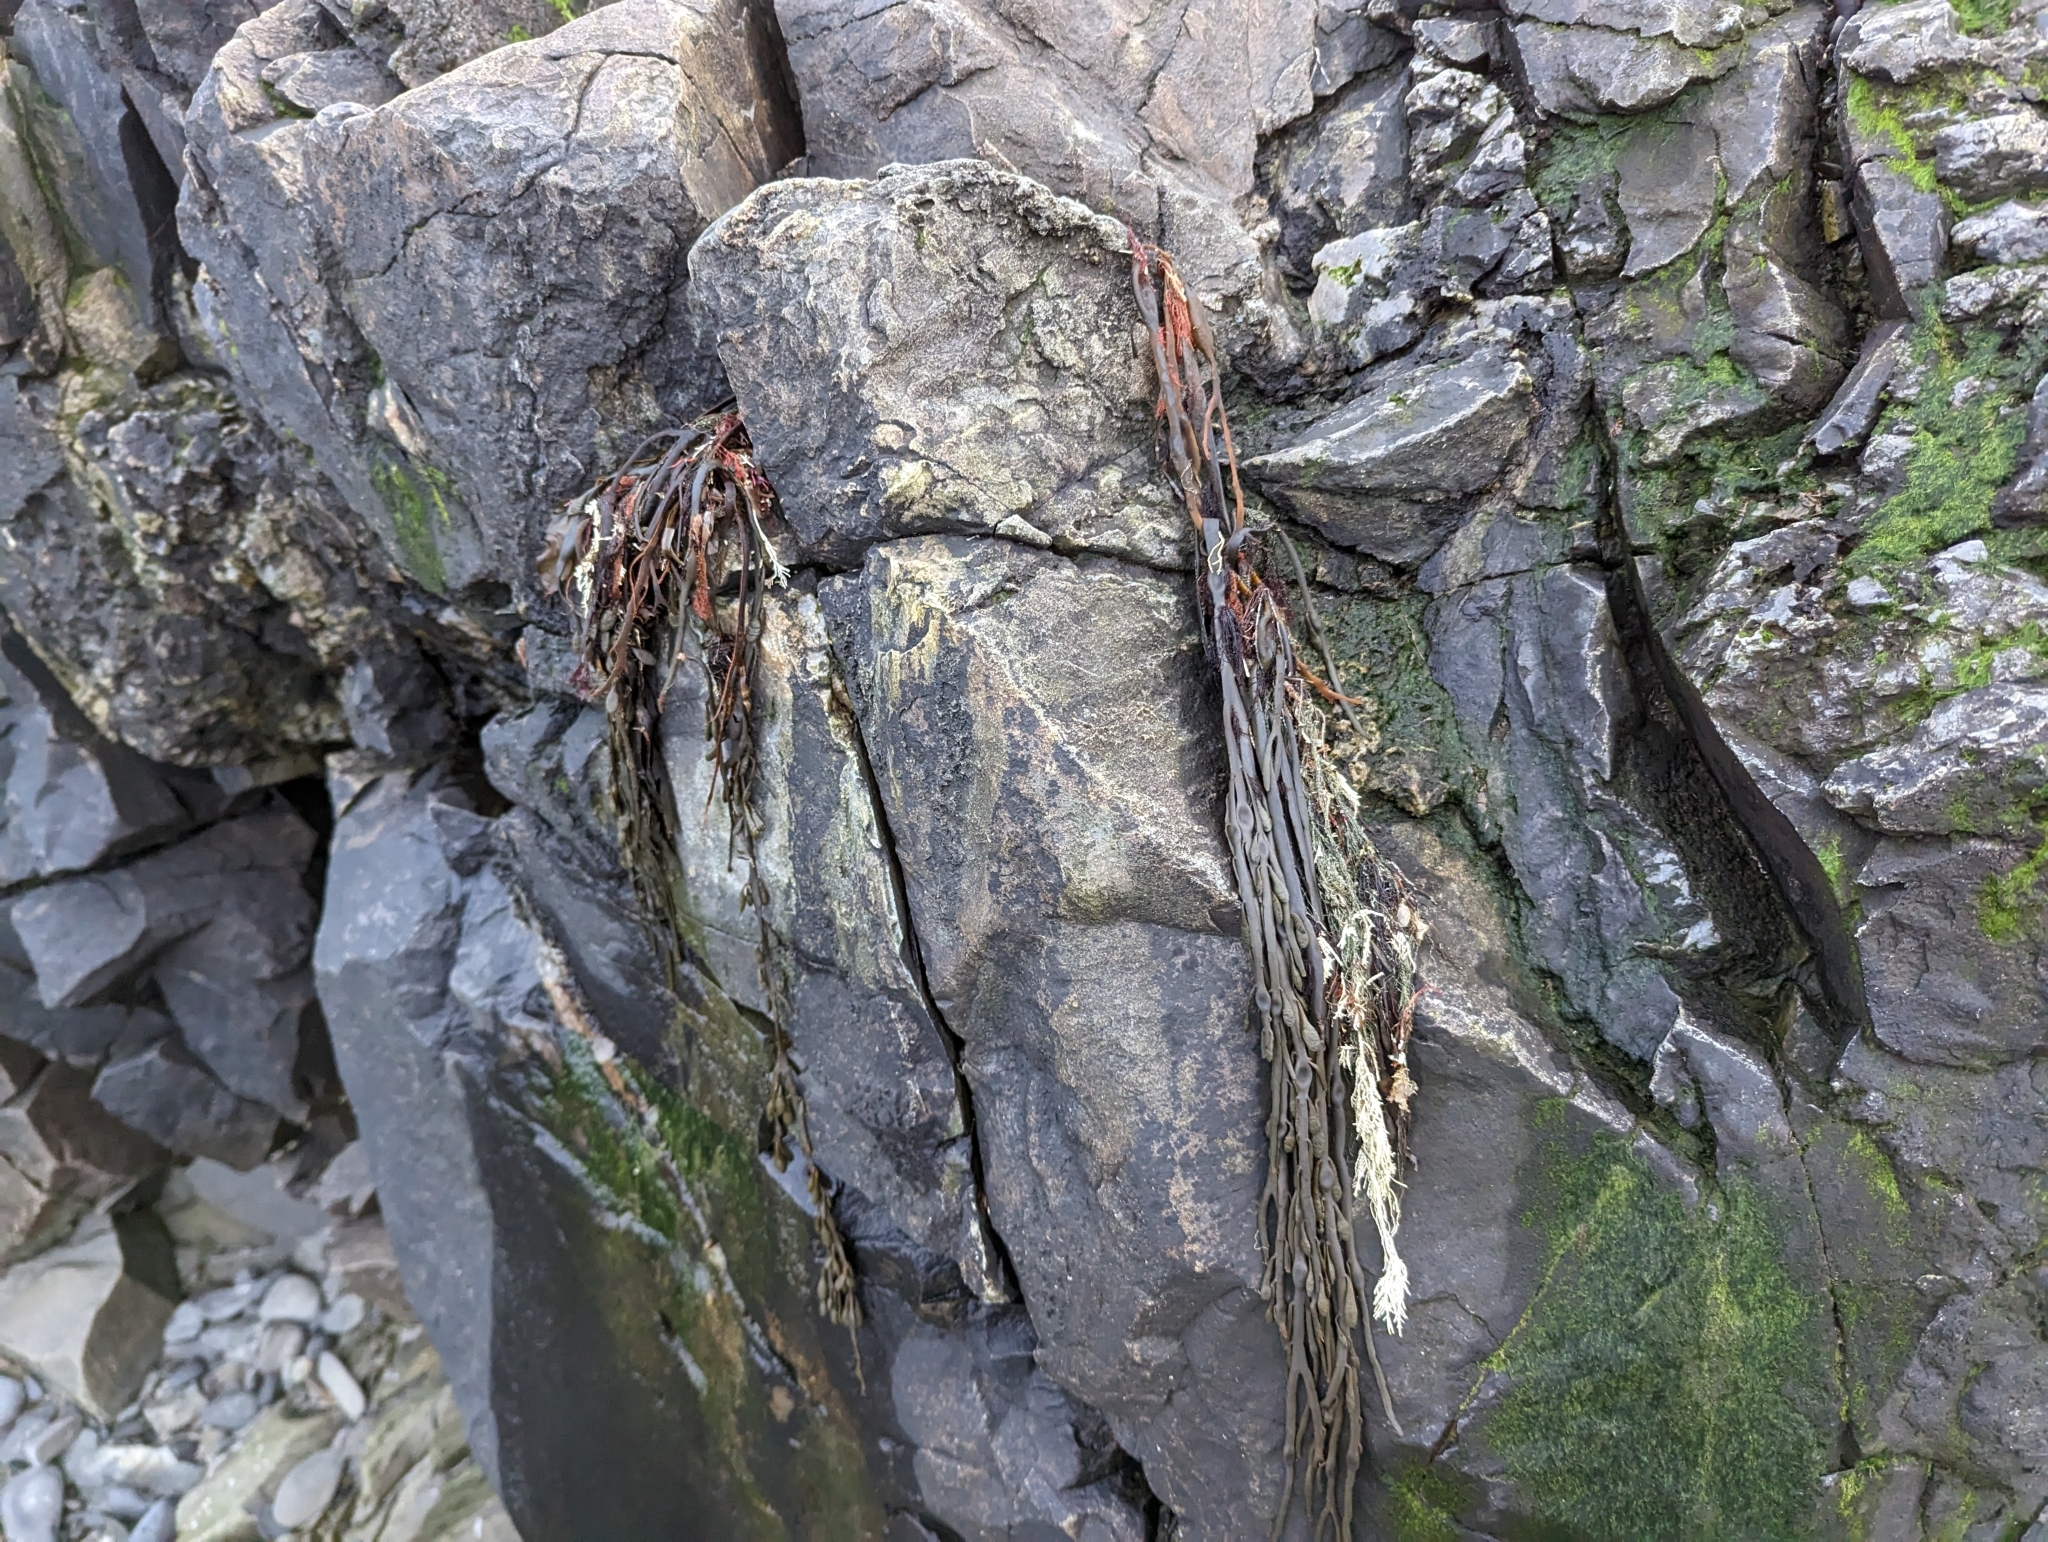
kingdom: Chromista
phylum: Ochrophyta
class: Phaeophyceae
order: Fucales
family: Fucaceae
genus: Ascophyllum
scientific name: Ascophyllum nodosum
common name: Knotted wrack
